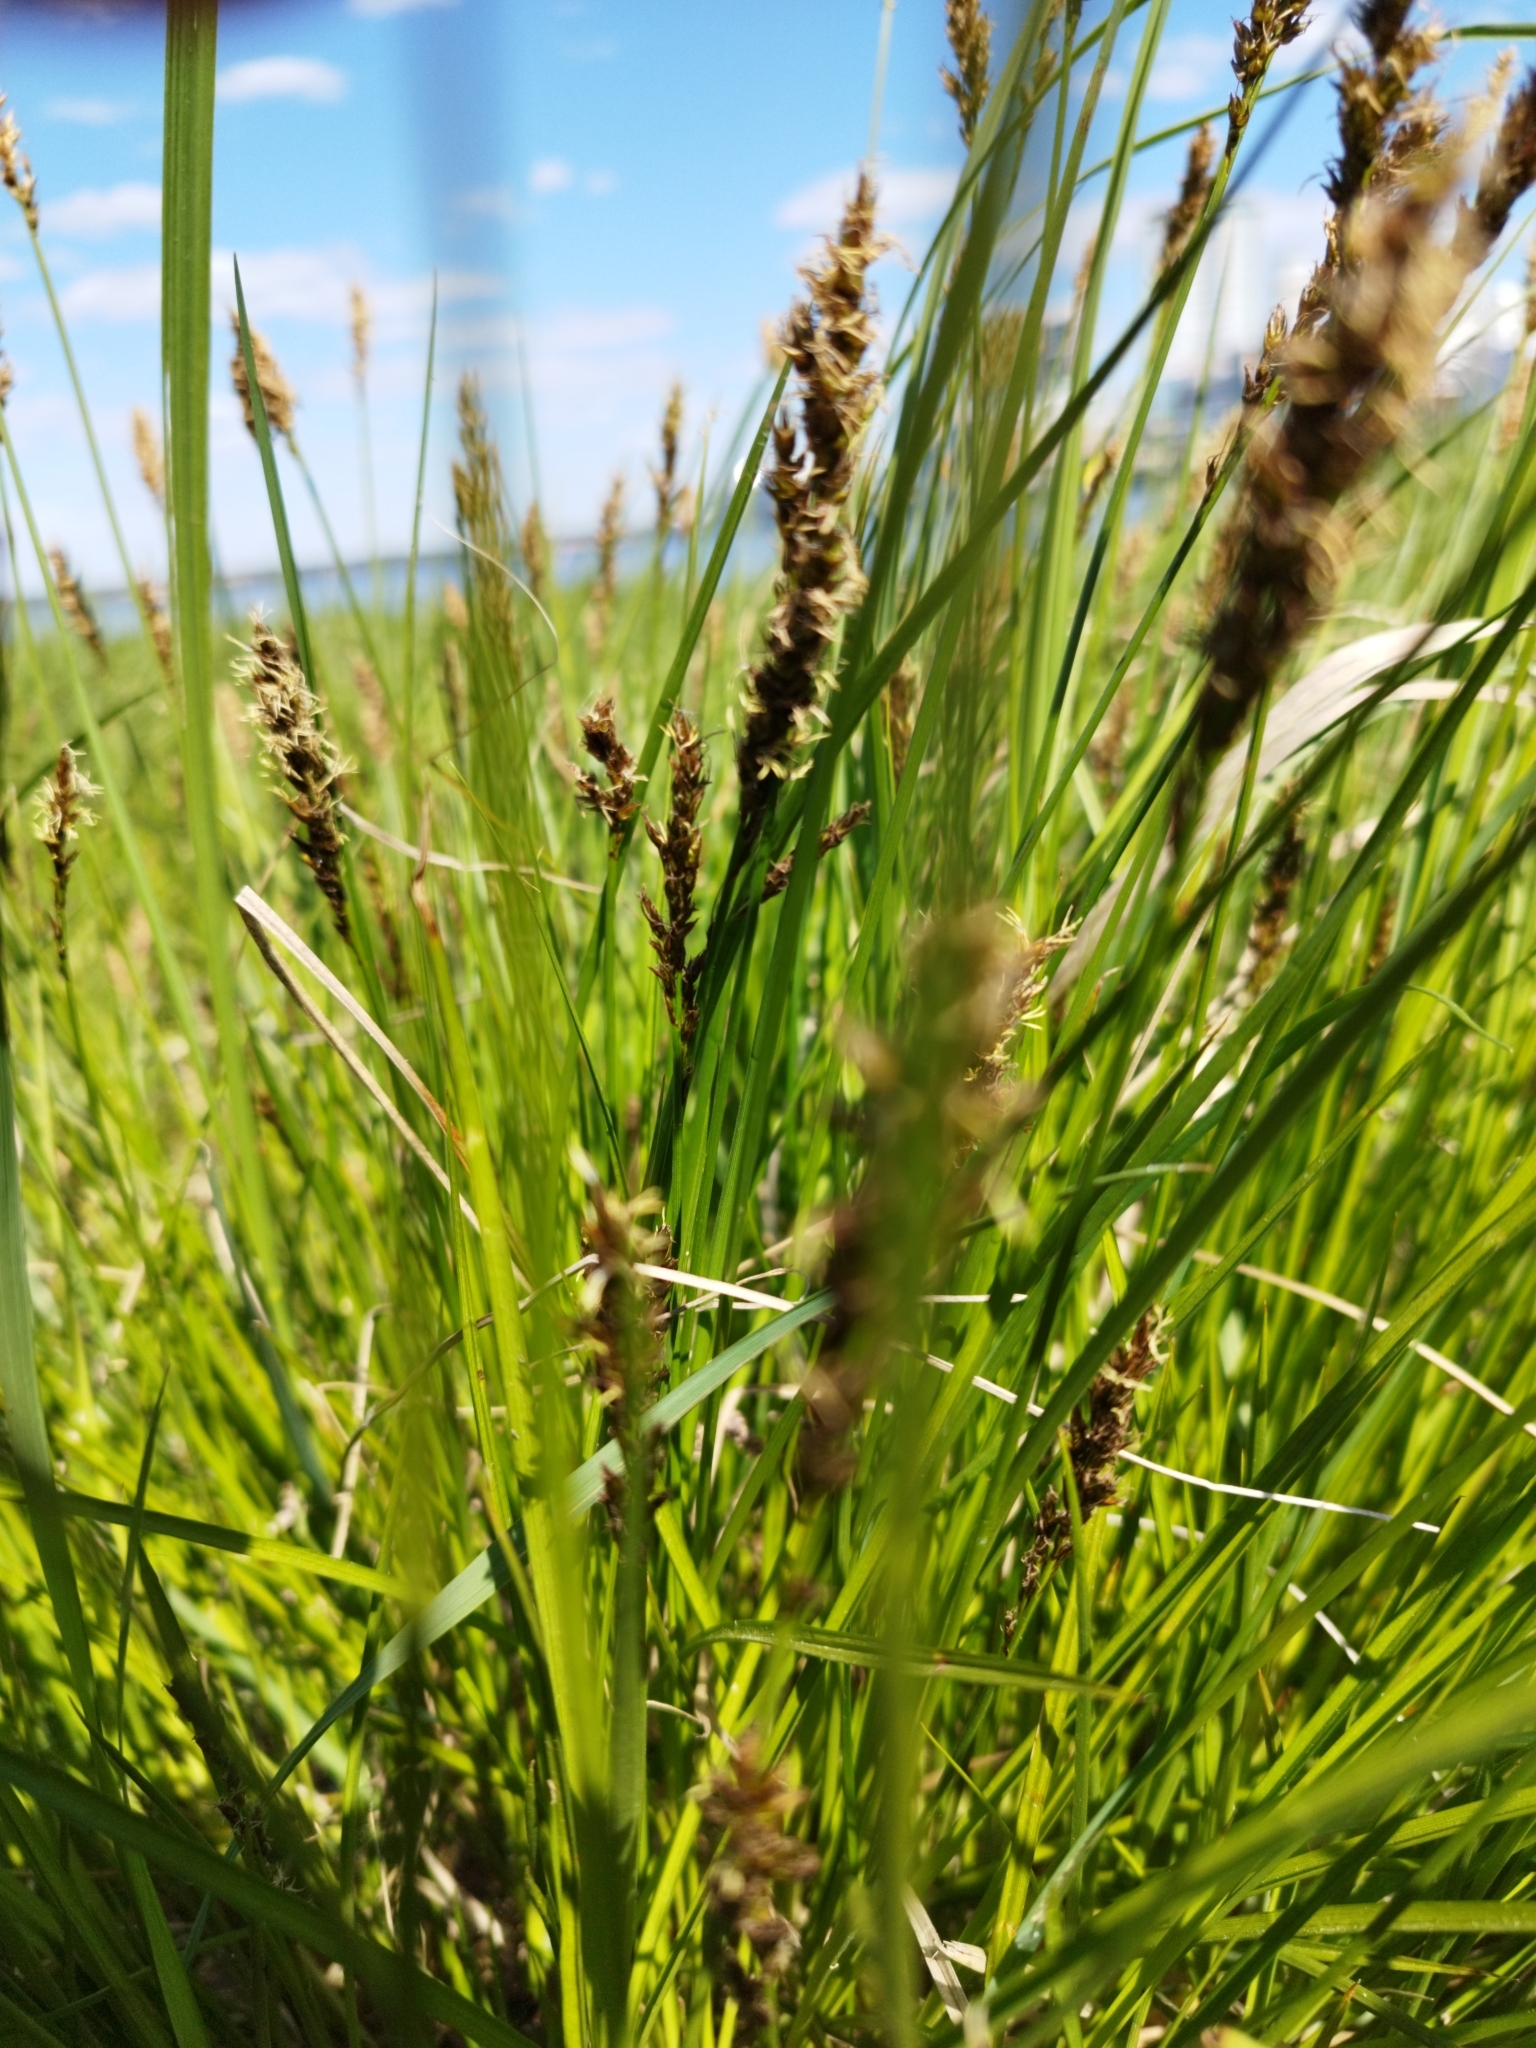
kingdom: Plantae
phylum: Tracheophyta
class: Liliopsida
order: Poales
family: Cyperaceae
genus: Carex
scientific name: Carex vulpina
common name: True fox-sedge
